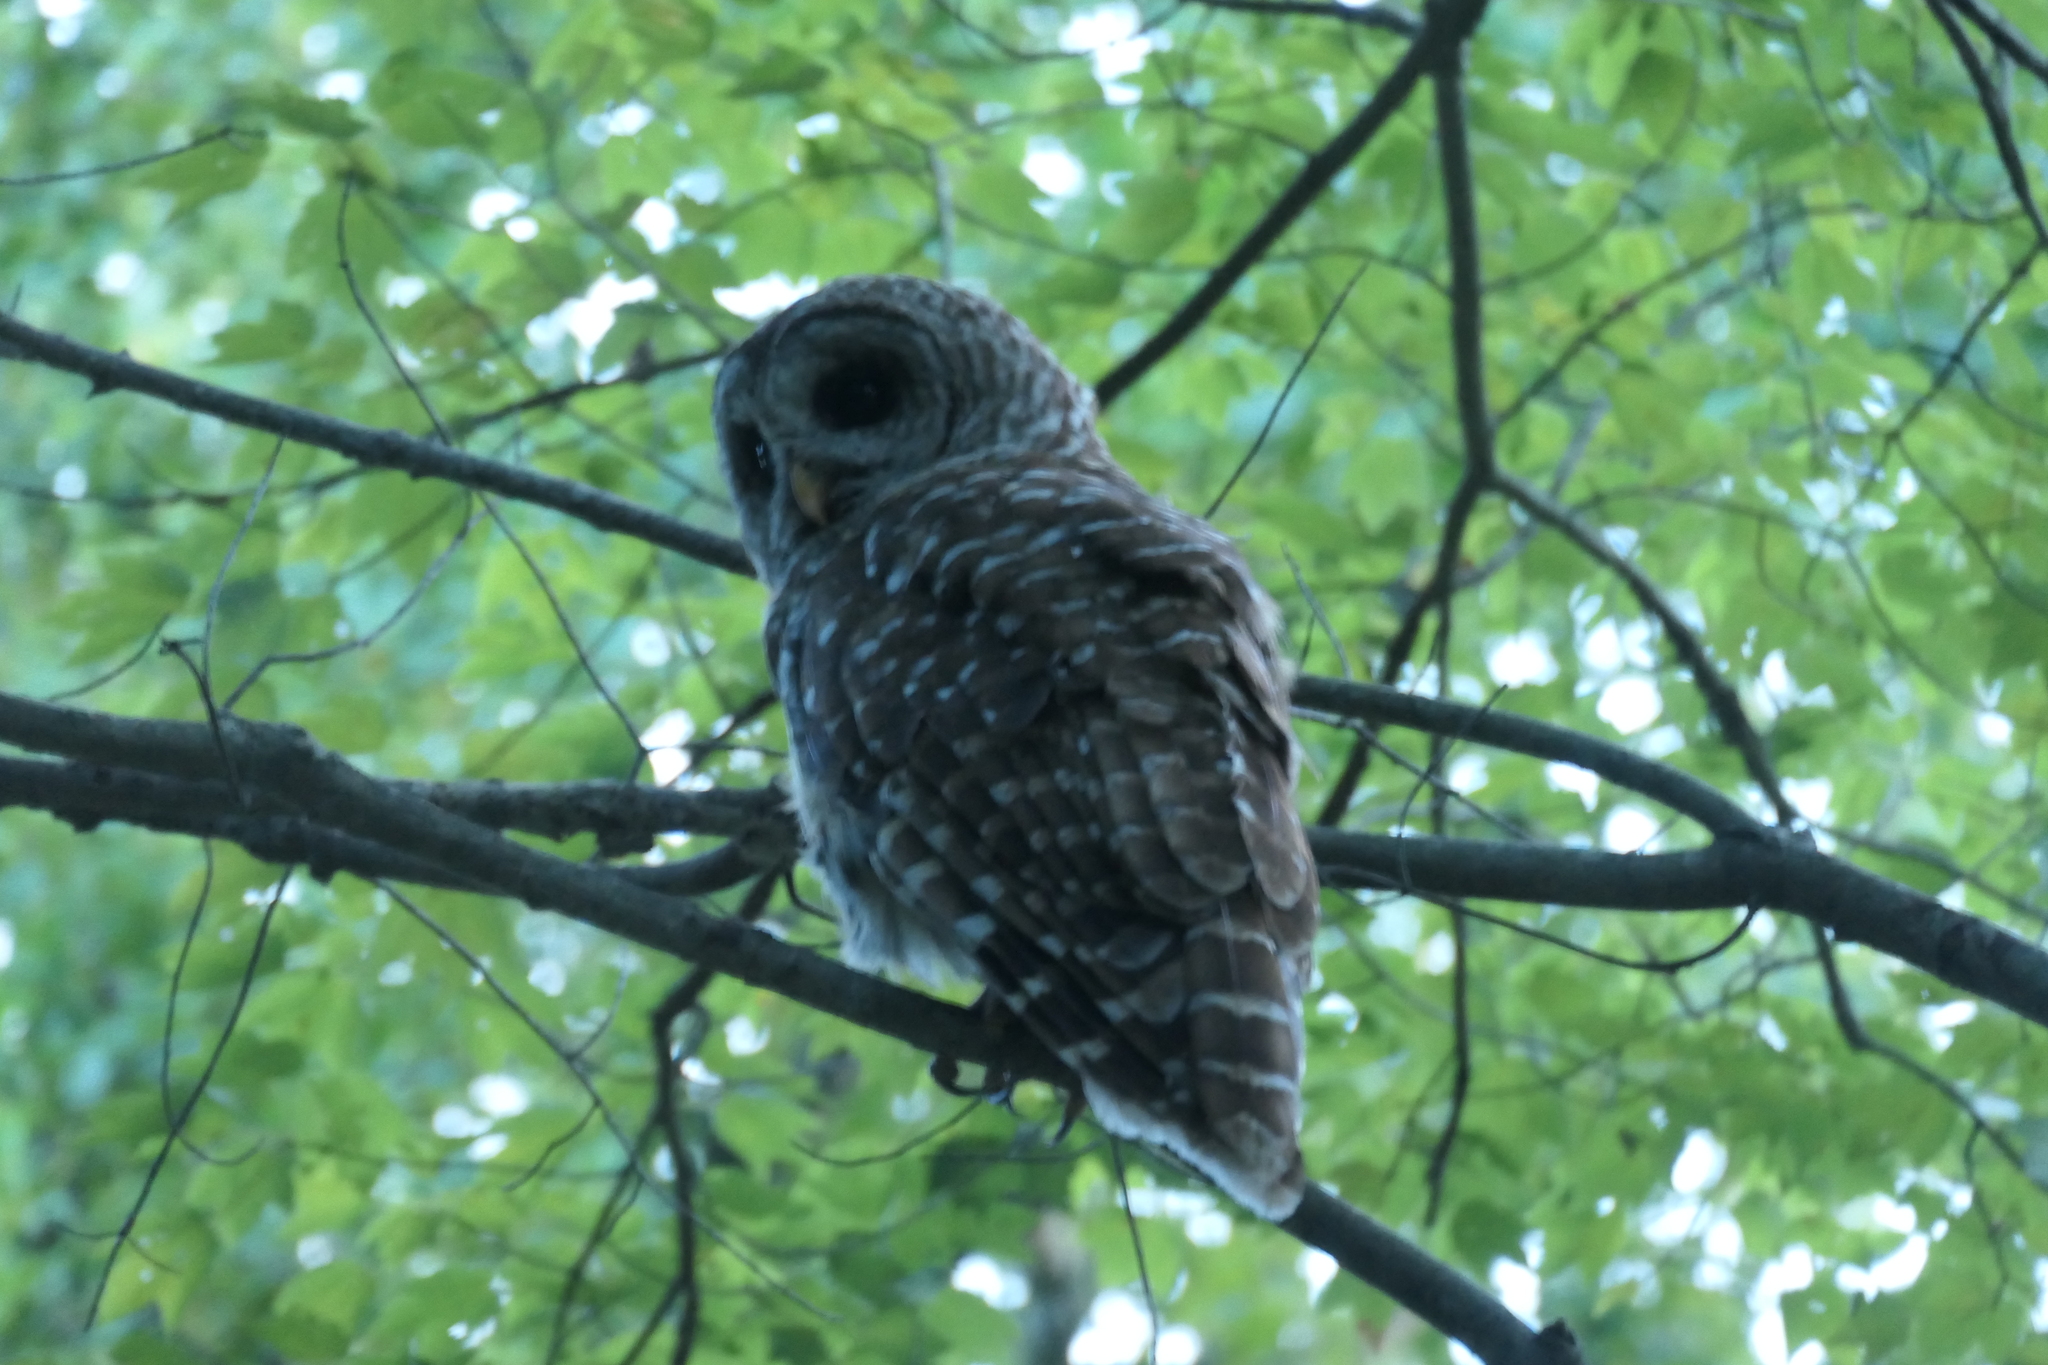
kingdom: Animalia
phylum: Chordata
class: Aves
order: Strigiformes
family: Strigidae
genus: Strix
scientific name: Strix varia
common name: Barred owl
